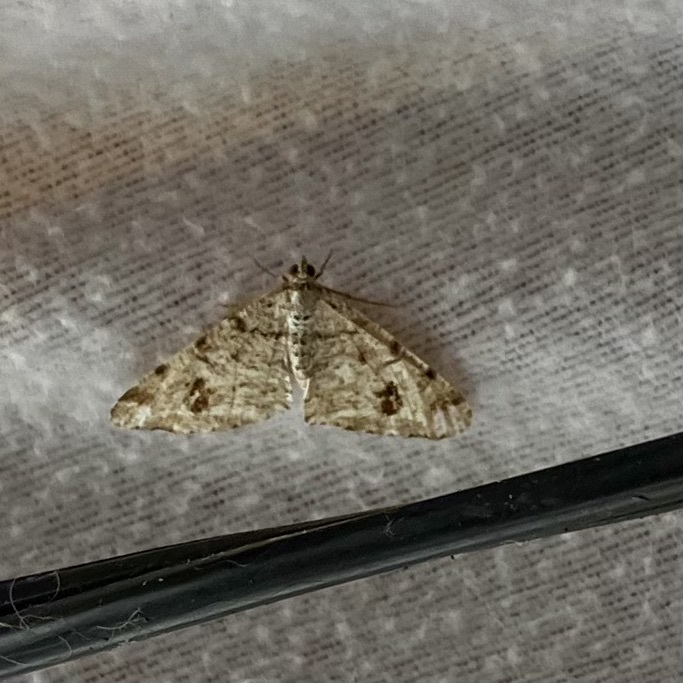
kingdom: Animalia
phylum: Arthropoda
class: Insecta
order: Lepidoptera
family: Geometridae
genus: Macaria
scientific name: Macaria signaria
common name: Dusky peacock
